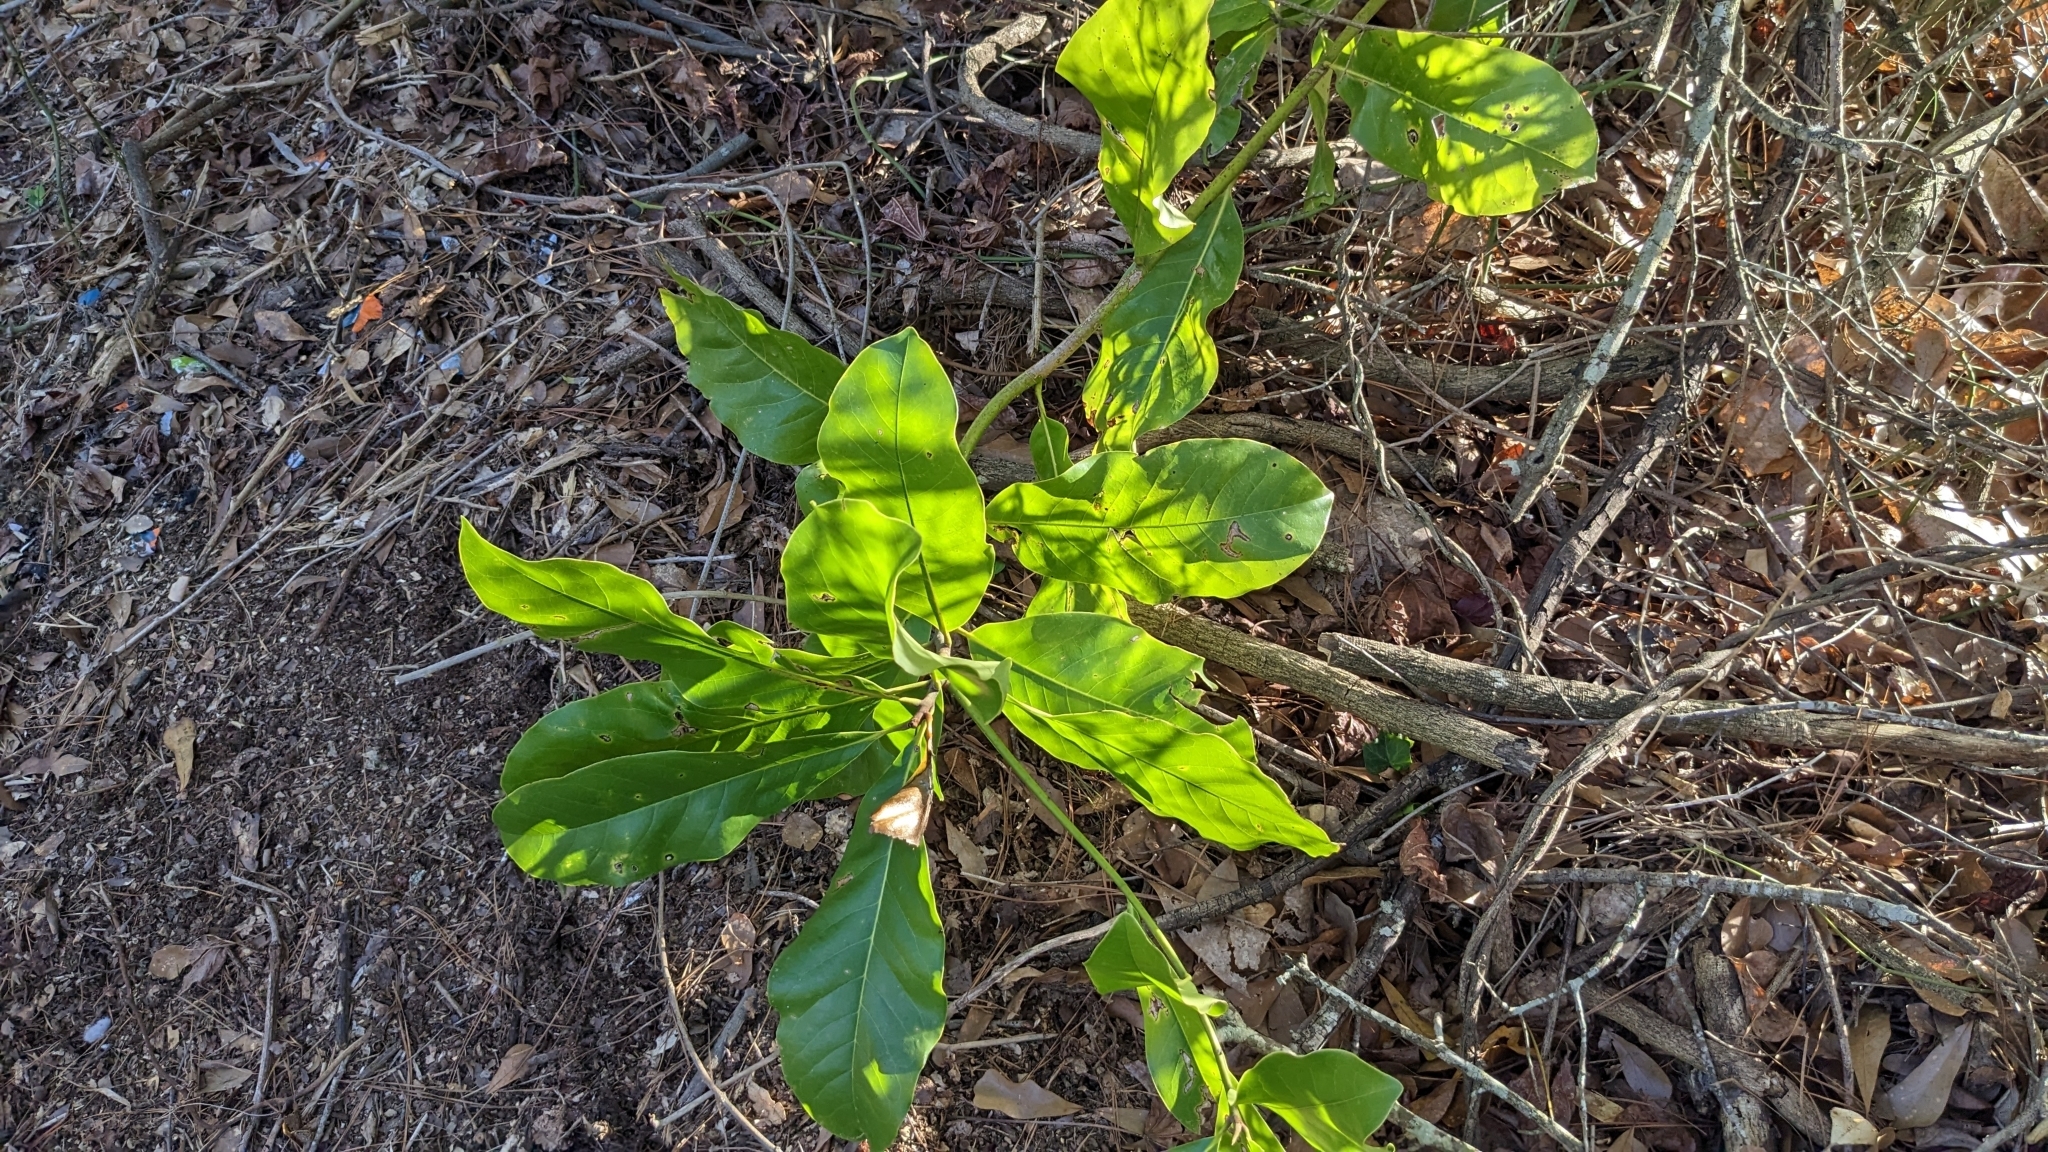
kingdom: Plantae
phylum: Tracheophyta
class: Magnoliopsida
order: Magnoliales
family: Magnoliaceae
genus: Magnolia
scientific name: Magnolia grandiflora
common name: Southern magnolia
